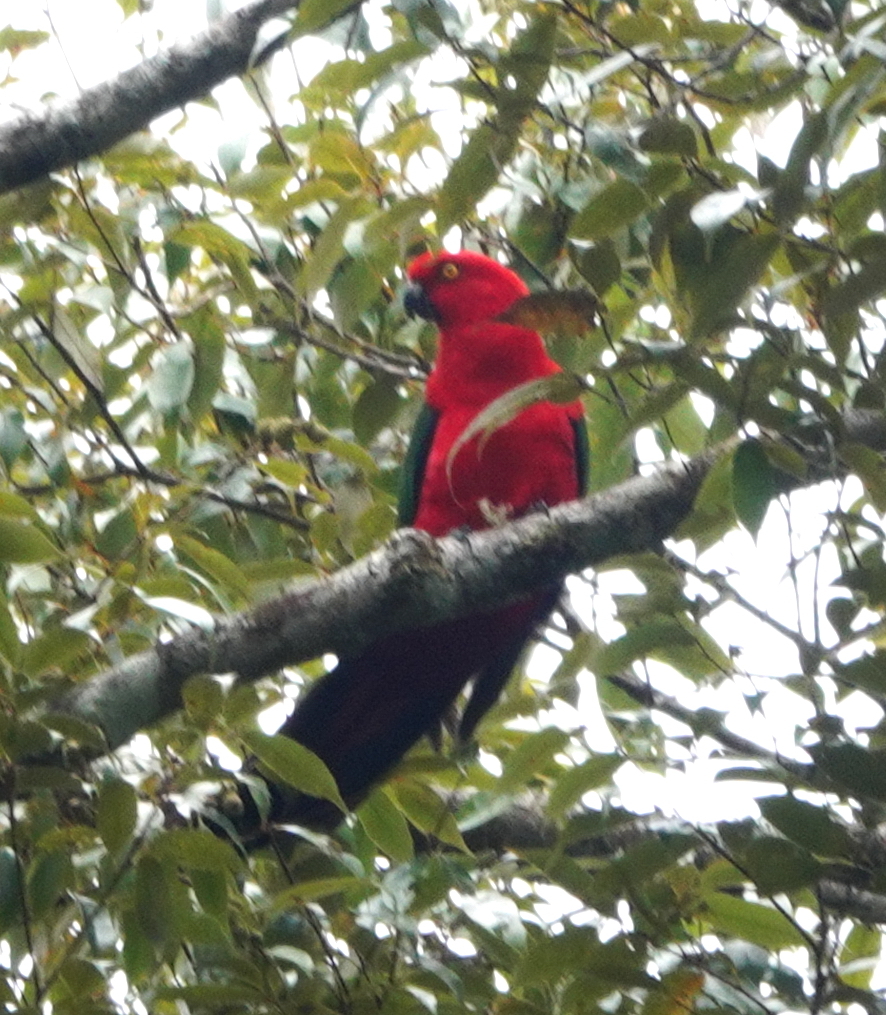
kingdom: Animalia
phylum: Chordata
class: Aves
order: Psittaciformes
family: Psittacidae
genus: Alisterus
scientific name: Alisterus amboinensis
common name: Moluccan king parrot
